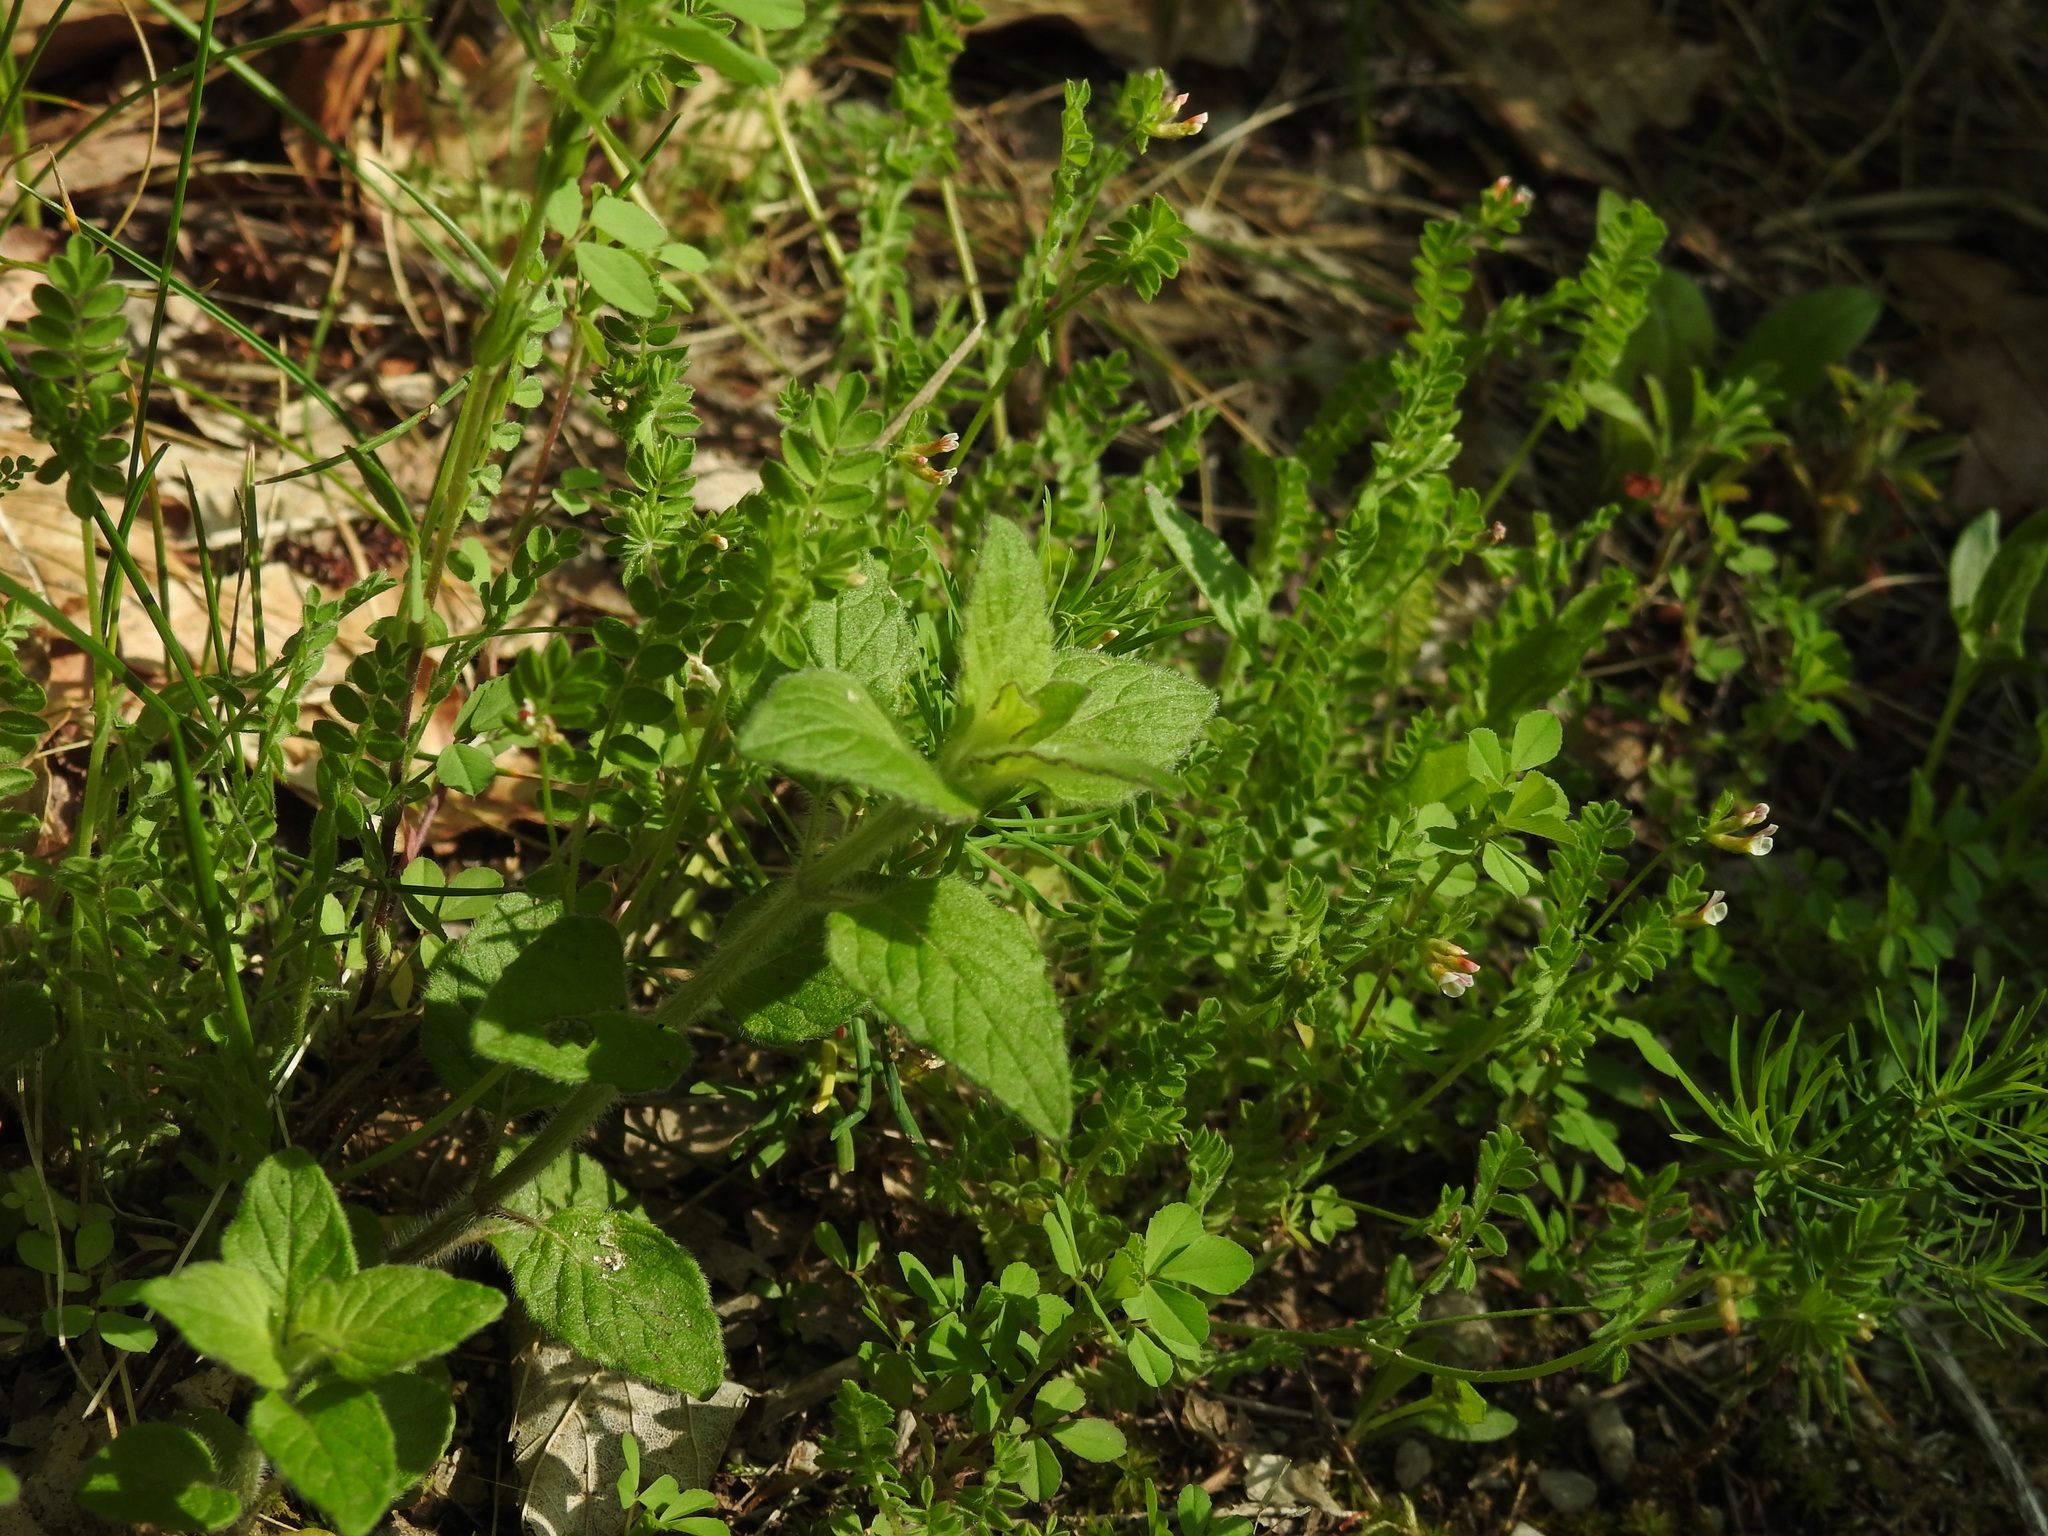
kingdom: Plantae
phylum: Tracheophyta
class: Magnoliopsida
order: Fabales
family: Fabaceae
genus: Ornithopus
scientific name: Ornithopus perpusillus
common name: Bird's-foot
